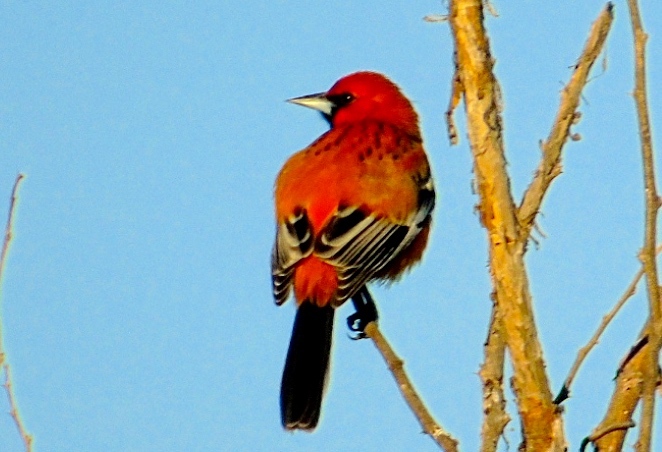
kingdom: Animalia
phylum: Chordata
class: Aves
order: Passeriformes
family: Icteridae
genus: Icterus
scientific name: Icterus pustulatus
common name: Streak-backed oriole
